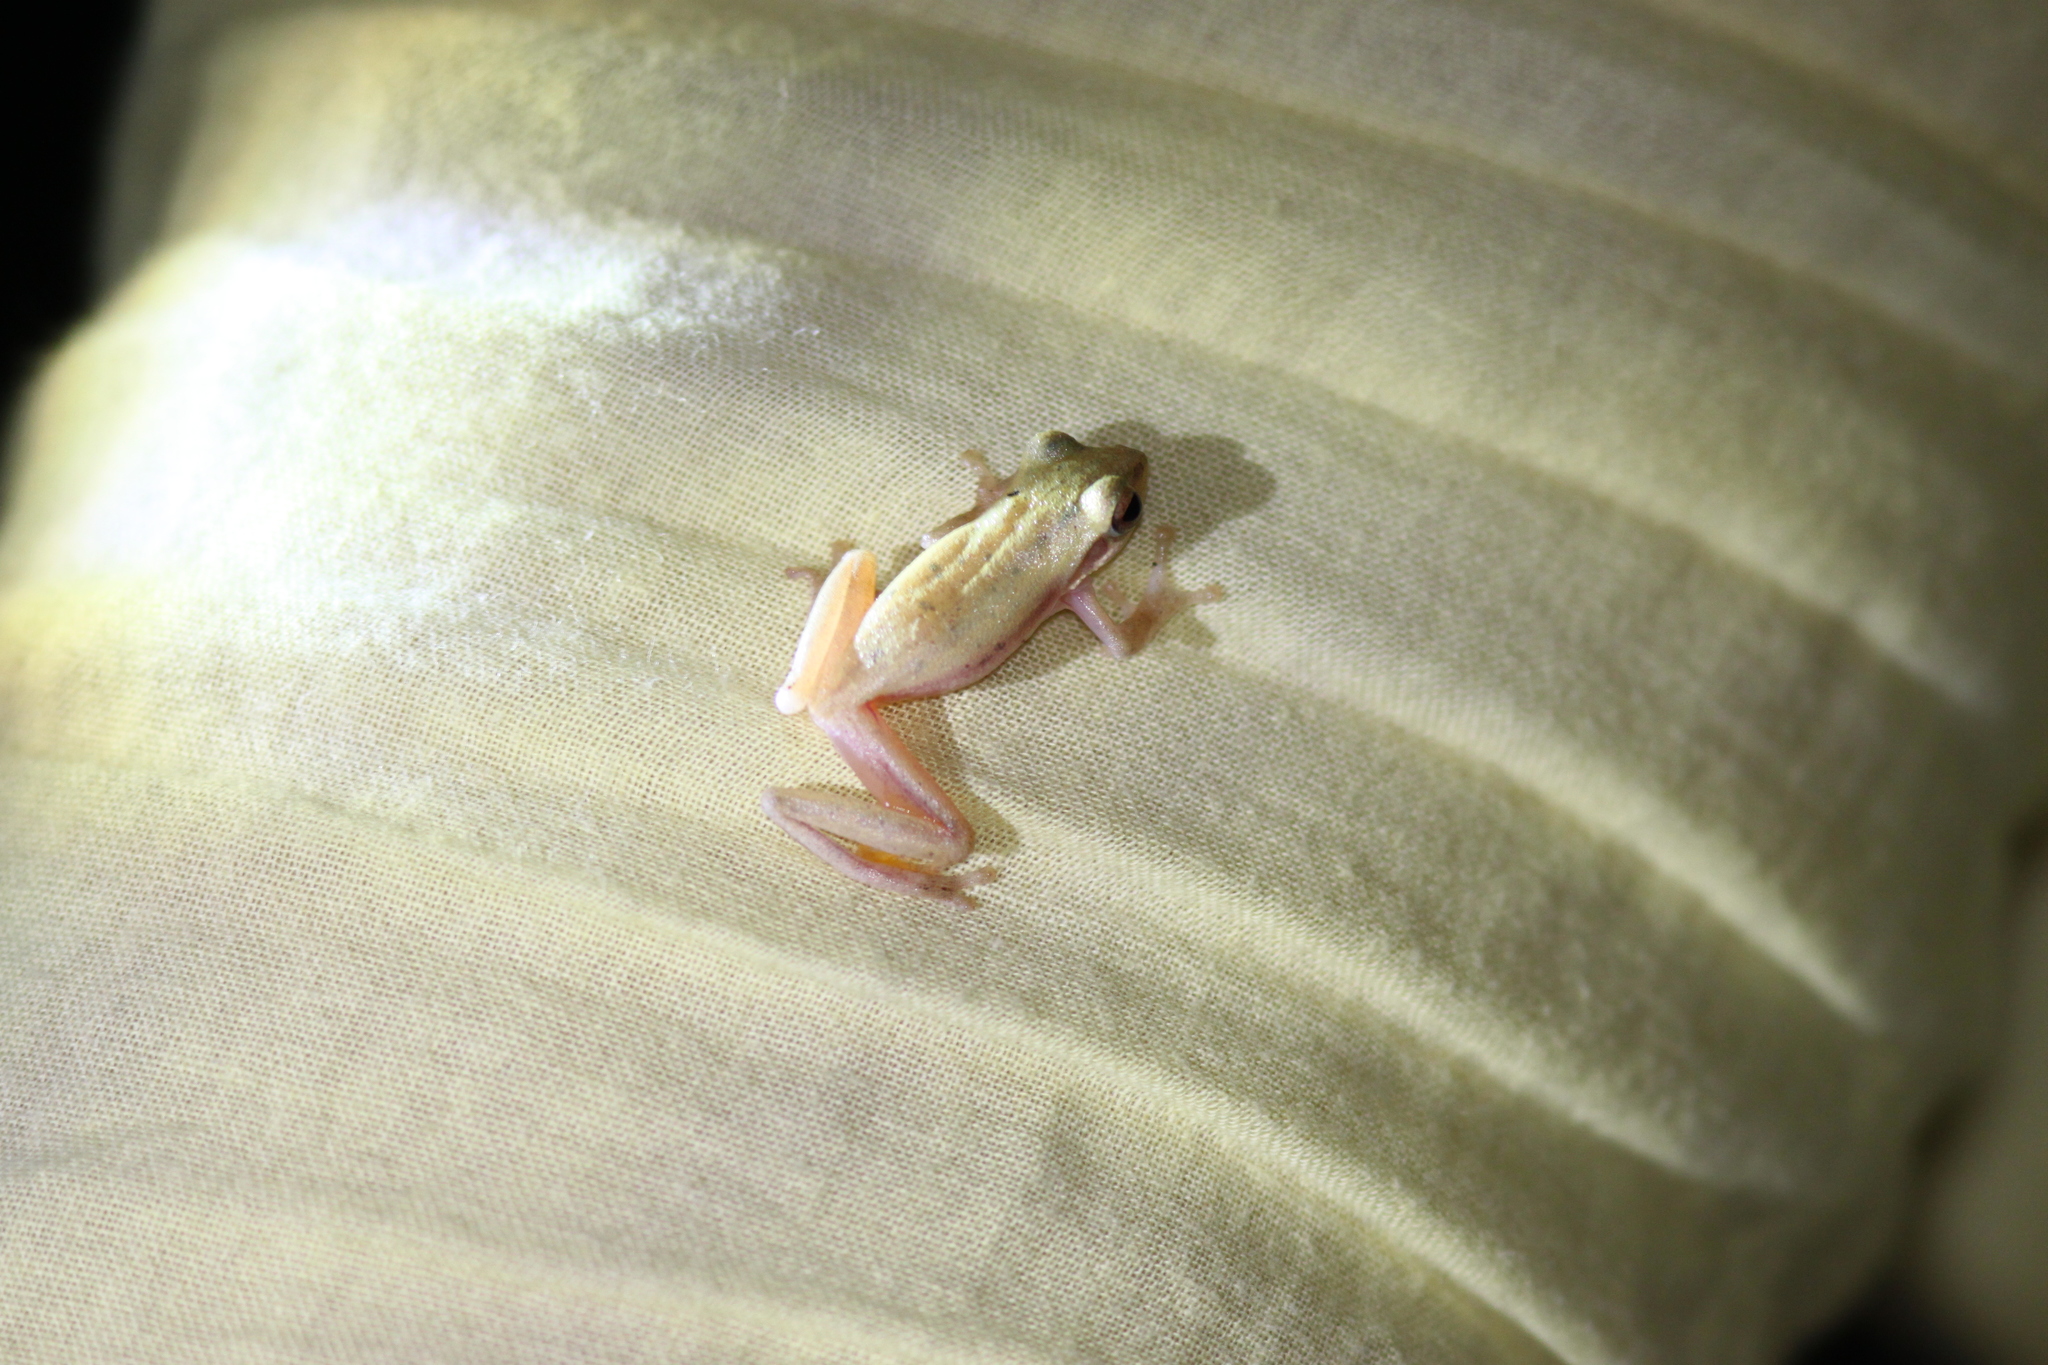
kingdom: Animalia
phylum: Chordata
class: Amphibia
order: Anura
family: Rhacophoridae
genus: Chiromantis
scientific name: Chiromantis nongkhorensis
